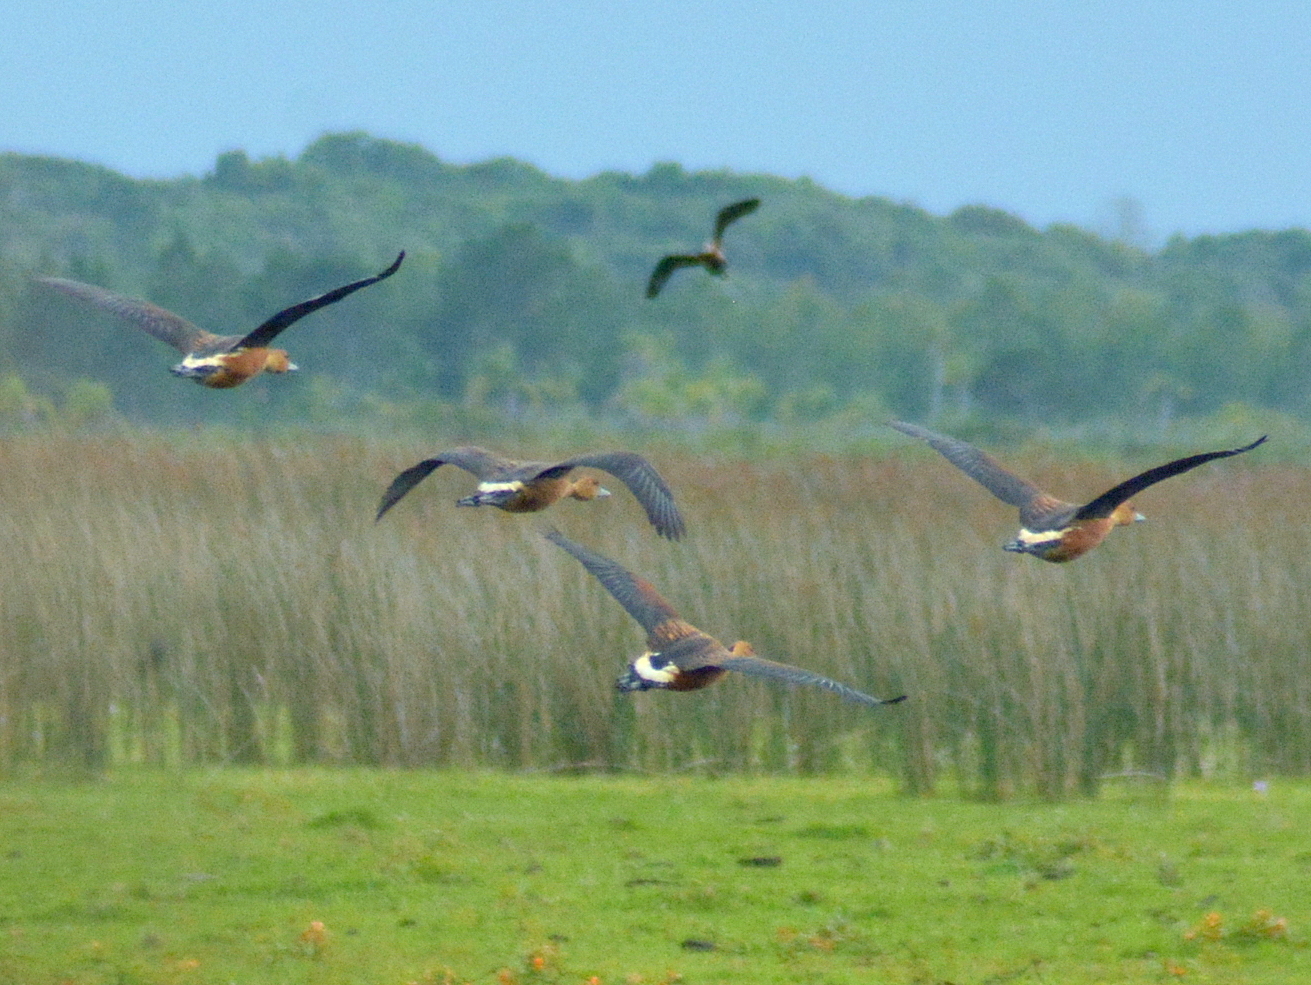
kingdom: Animalia
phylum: Chordata
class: Aves
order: Anseriformes
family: Anatidae
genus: Dendrocygna
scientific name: Dendrocygna bicolor
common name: Fulvous whistling duck
